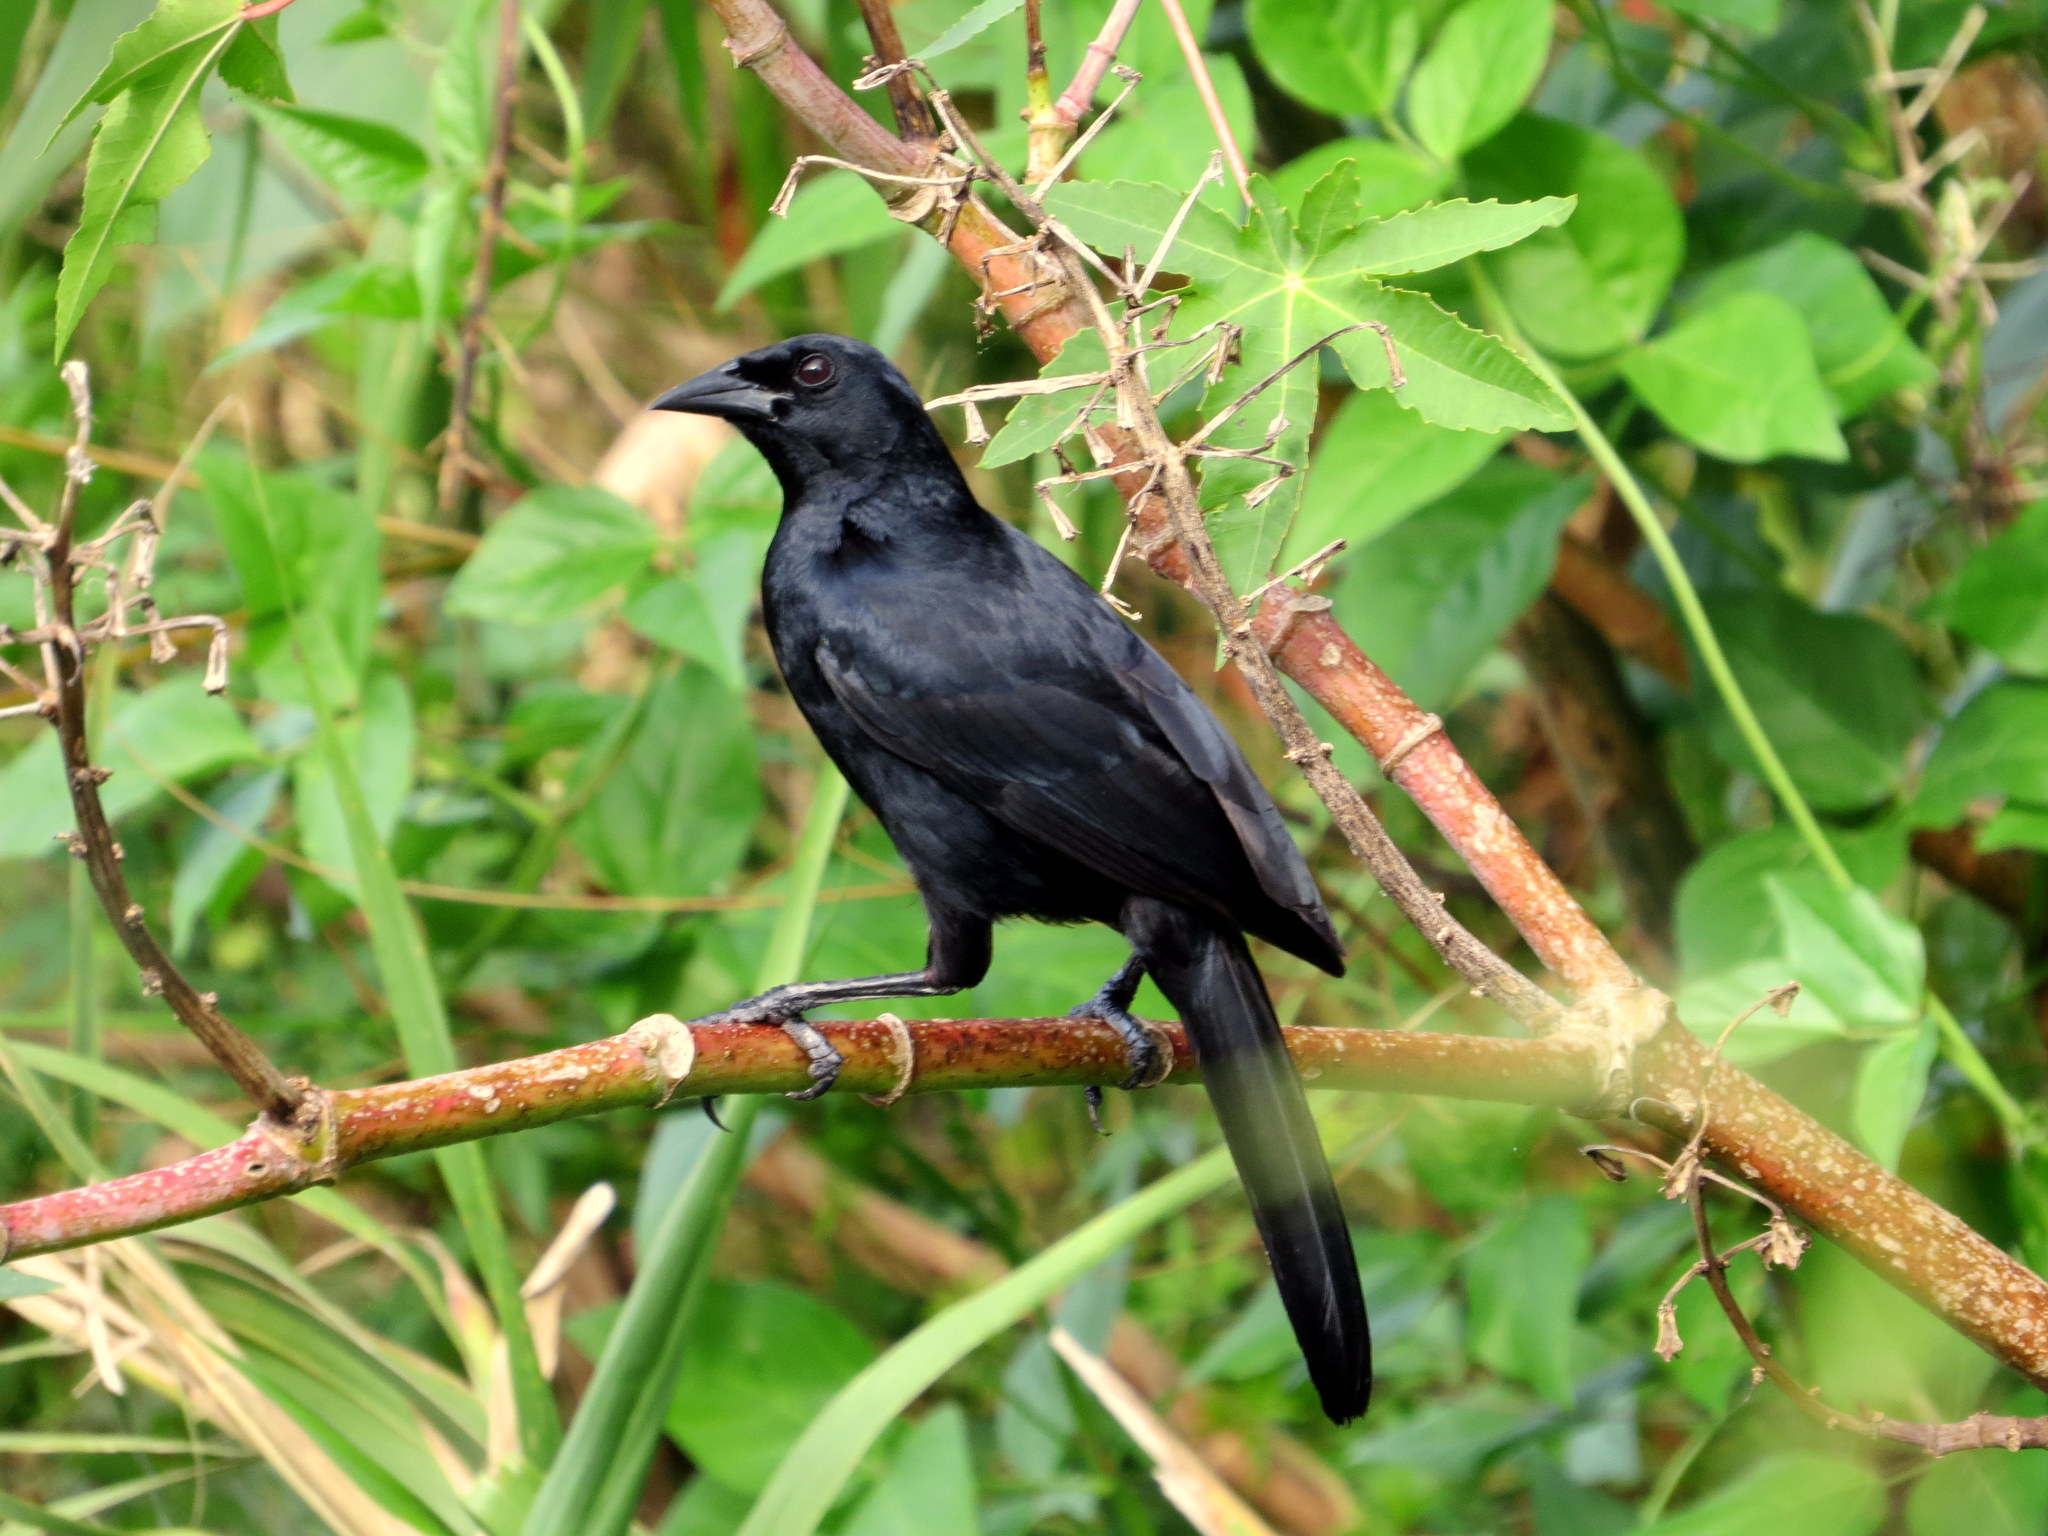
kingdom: Animalia
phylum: Chordata
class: Aves
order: Passeriformes
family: Icteridae
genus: Dives
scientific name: Dives warczewiczi
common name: Scrub blackbird
